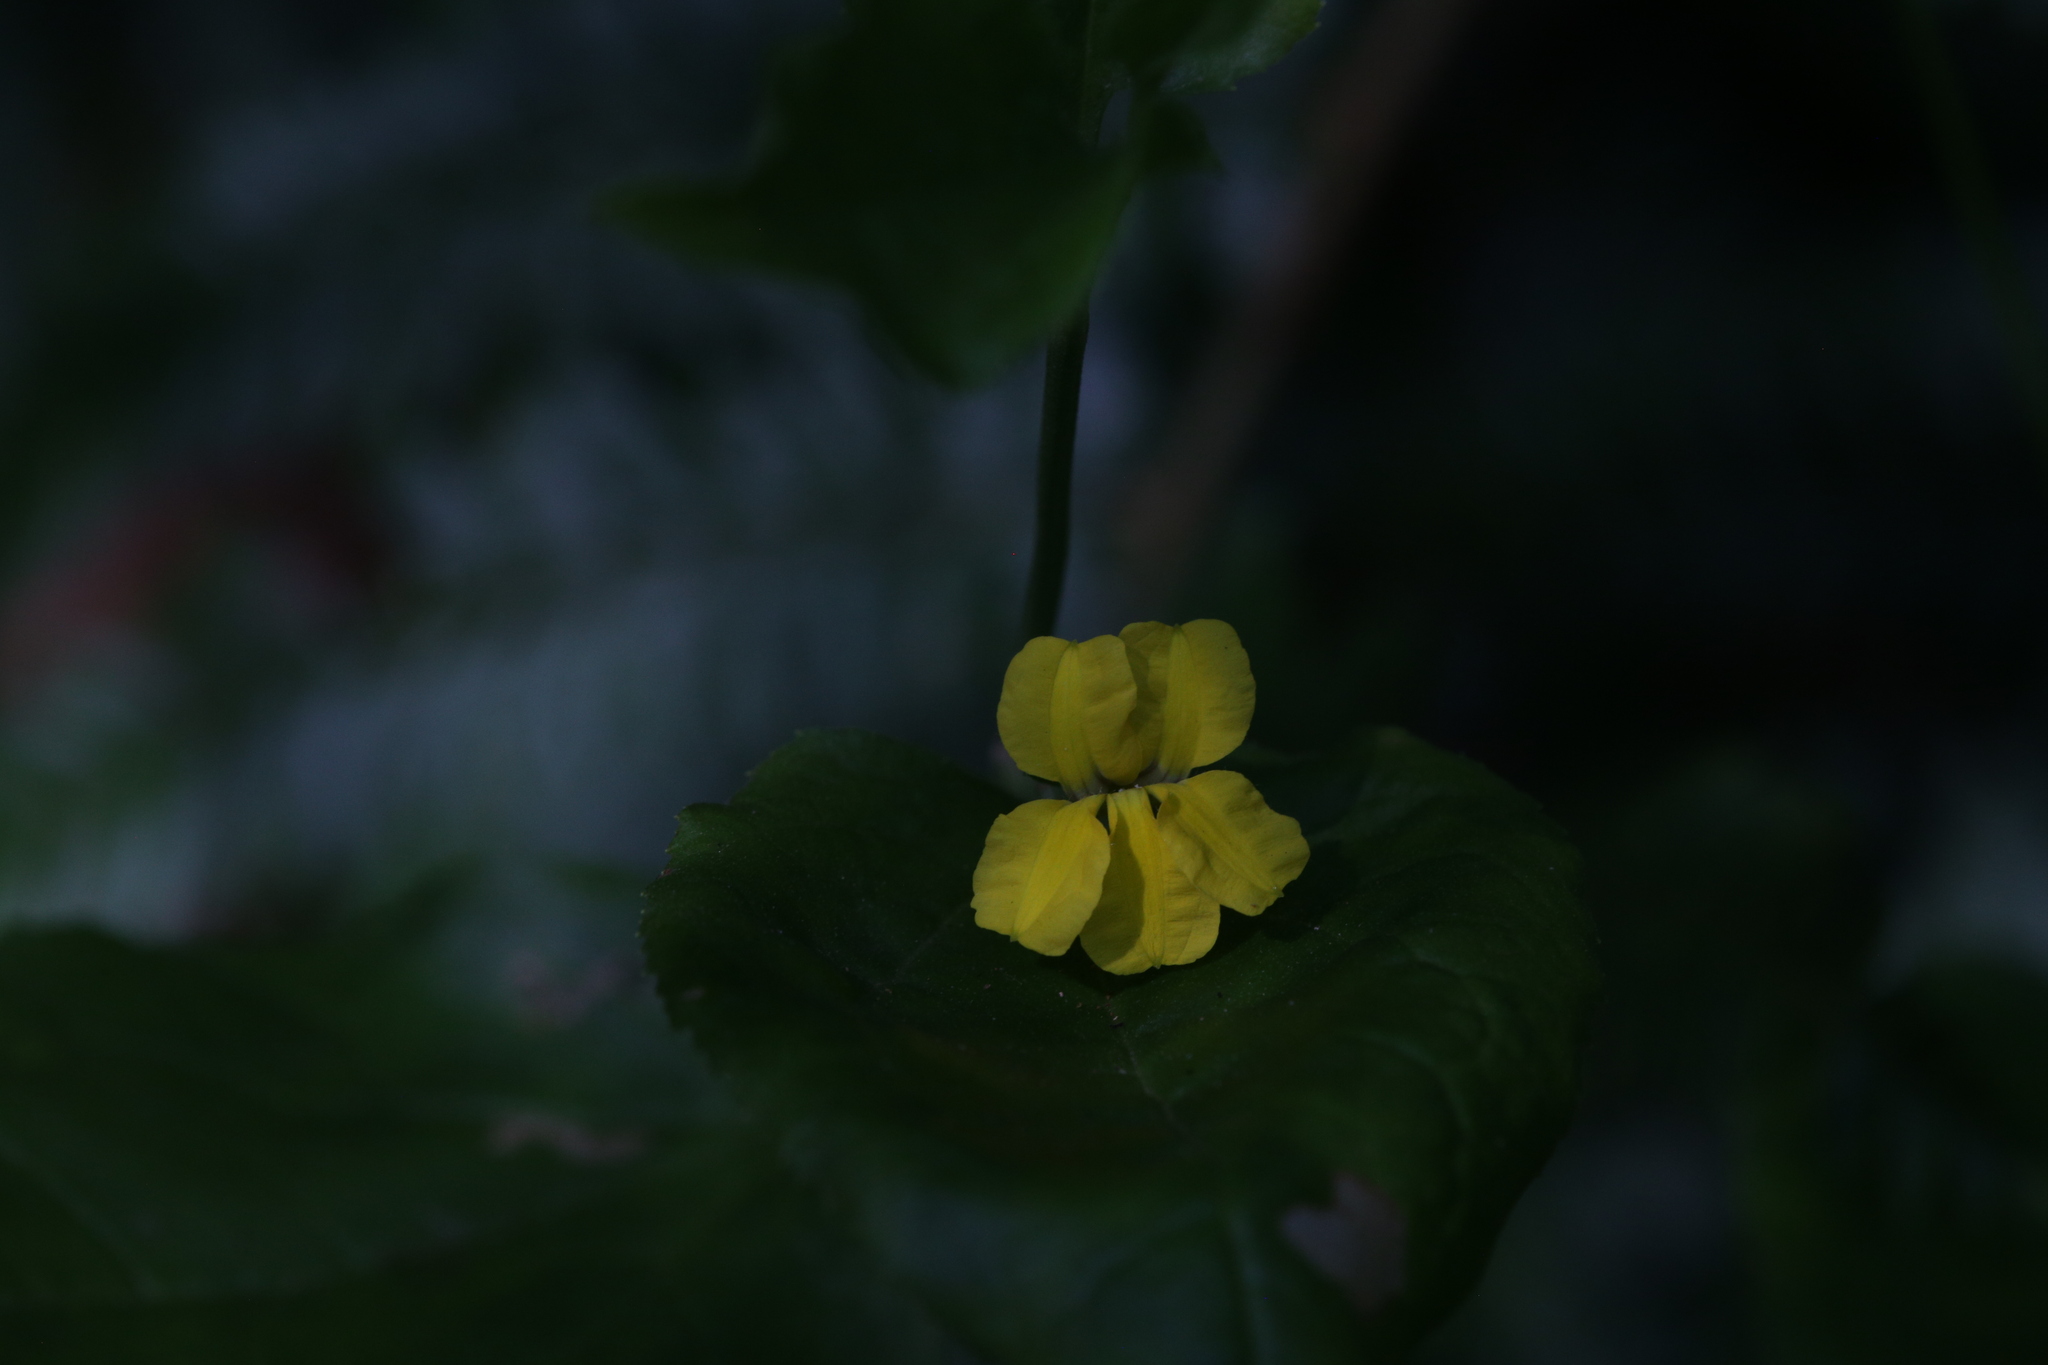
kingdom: Plantae
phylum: Tracheophyta
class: Magnoliopsida
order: Asterales
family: Goodeniaceae
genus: Goodenia
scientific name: Goodenia ovata
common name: Hop goodenia
